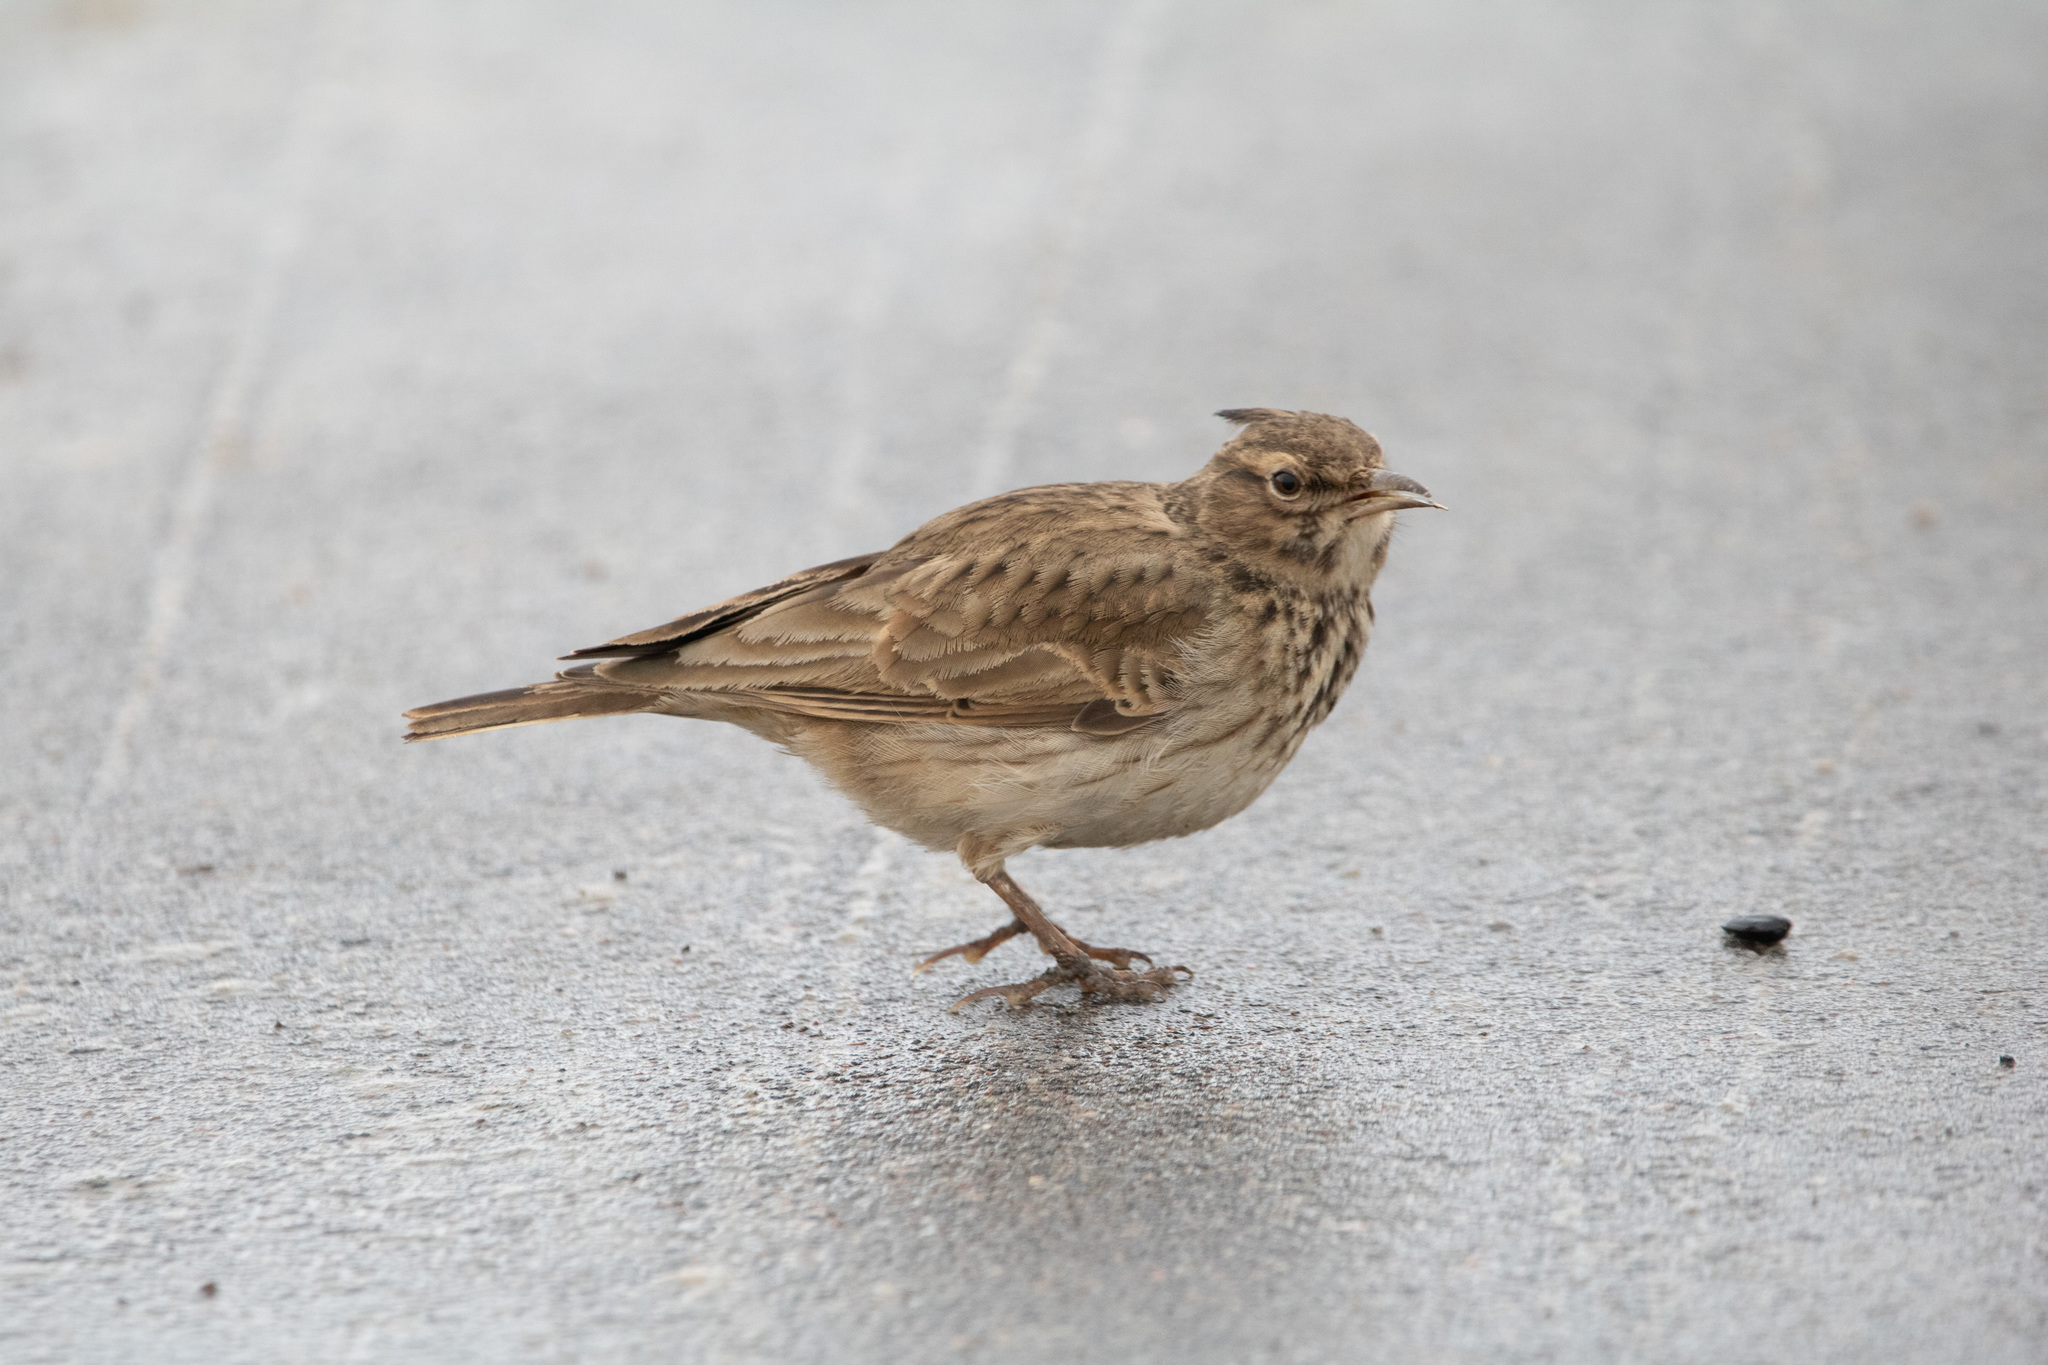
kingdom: Animalia
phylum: Chordata
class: Aves
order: Passeriformes
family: Alaudidae
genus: Galerida
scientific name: Galerida cristata
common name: Crested lark
